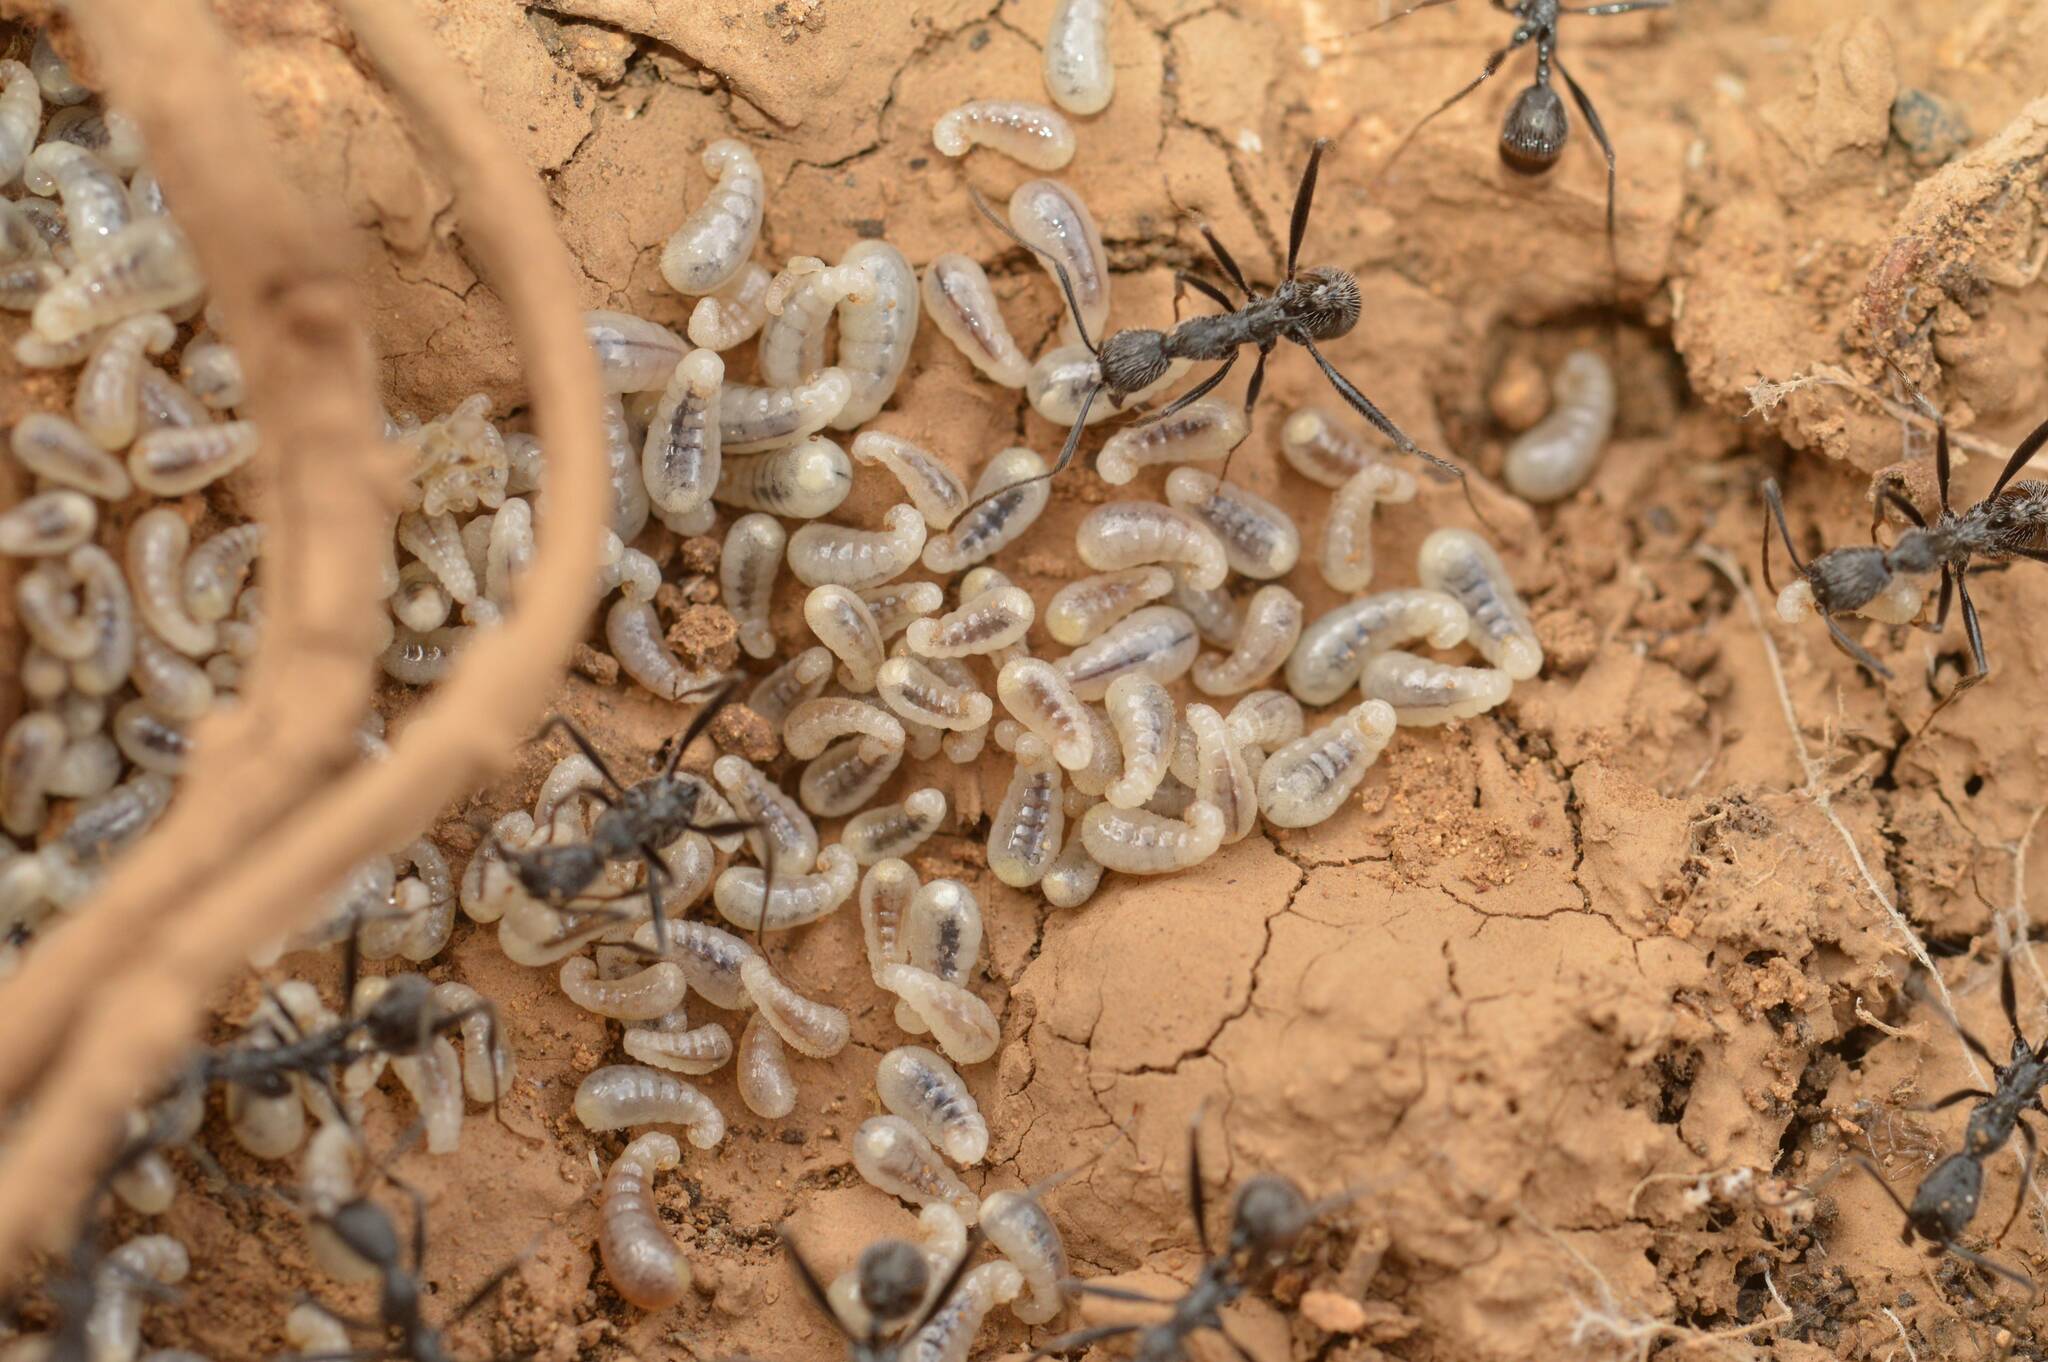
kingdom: Animalia
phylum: Arthropoda
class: Insecta
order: Hymenoptera
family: Formicidae
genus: Aphaenogaster
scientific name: Aphaenogaster senilis
